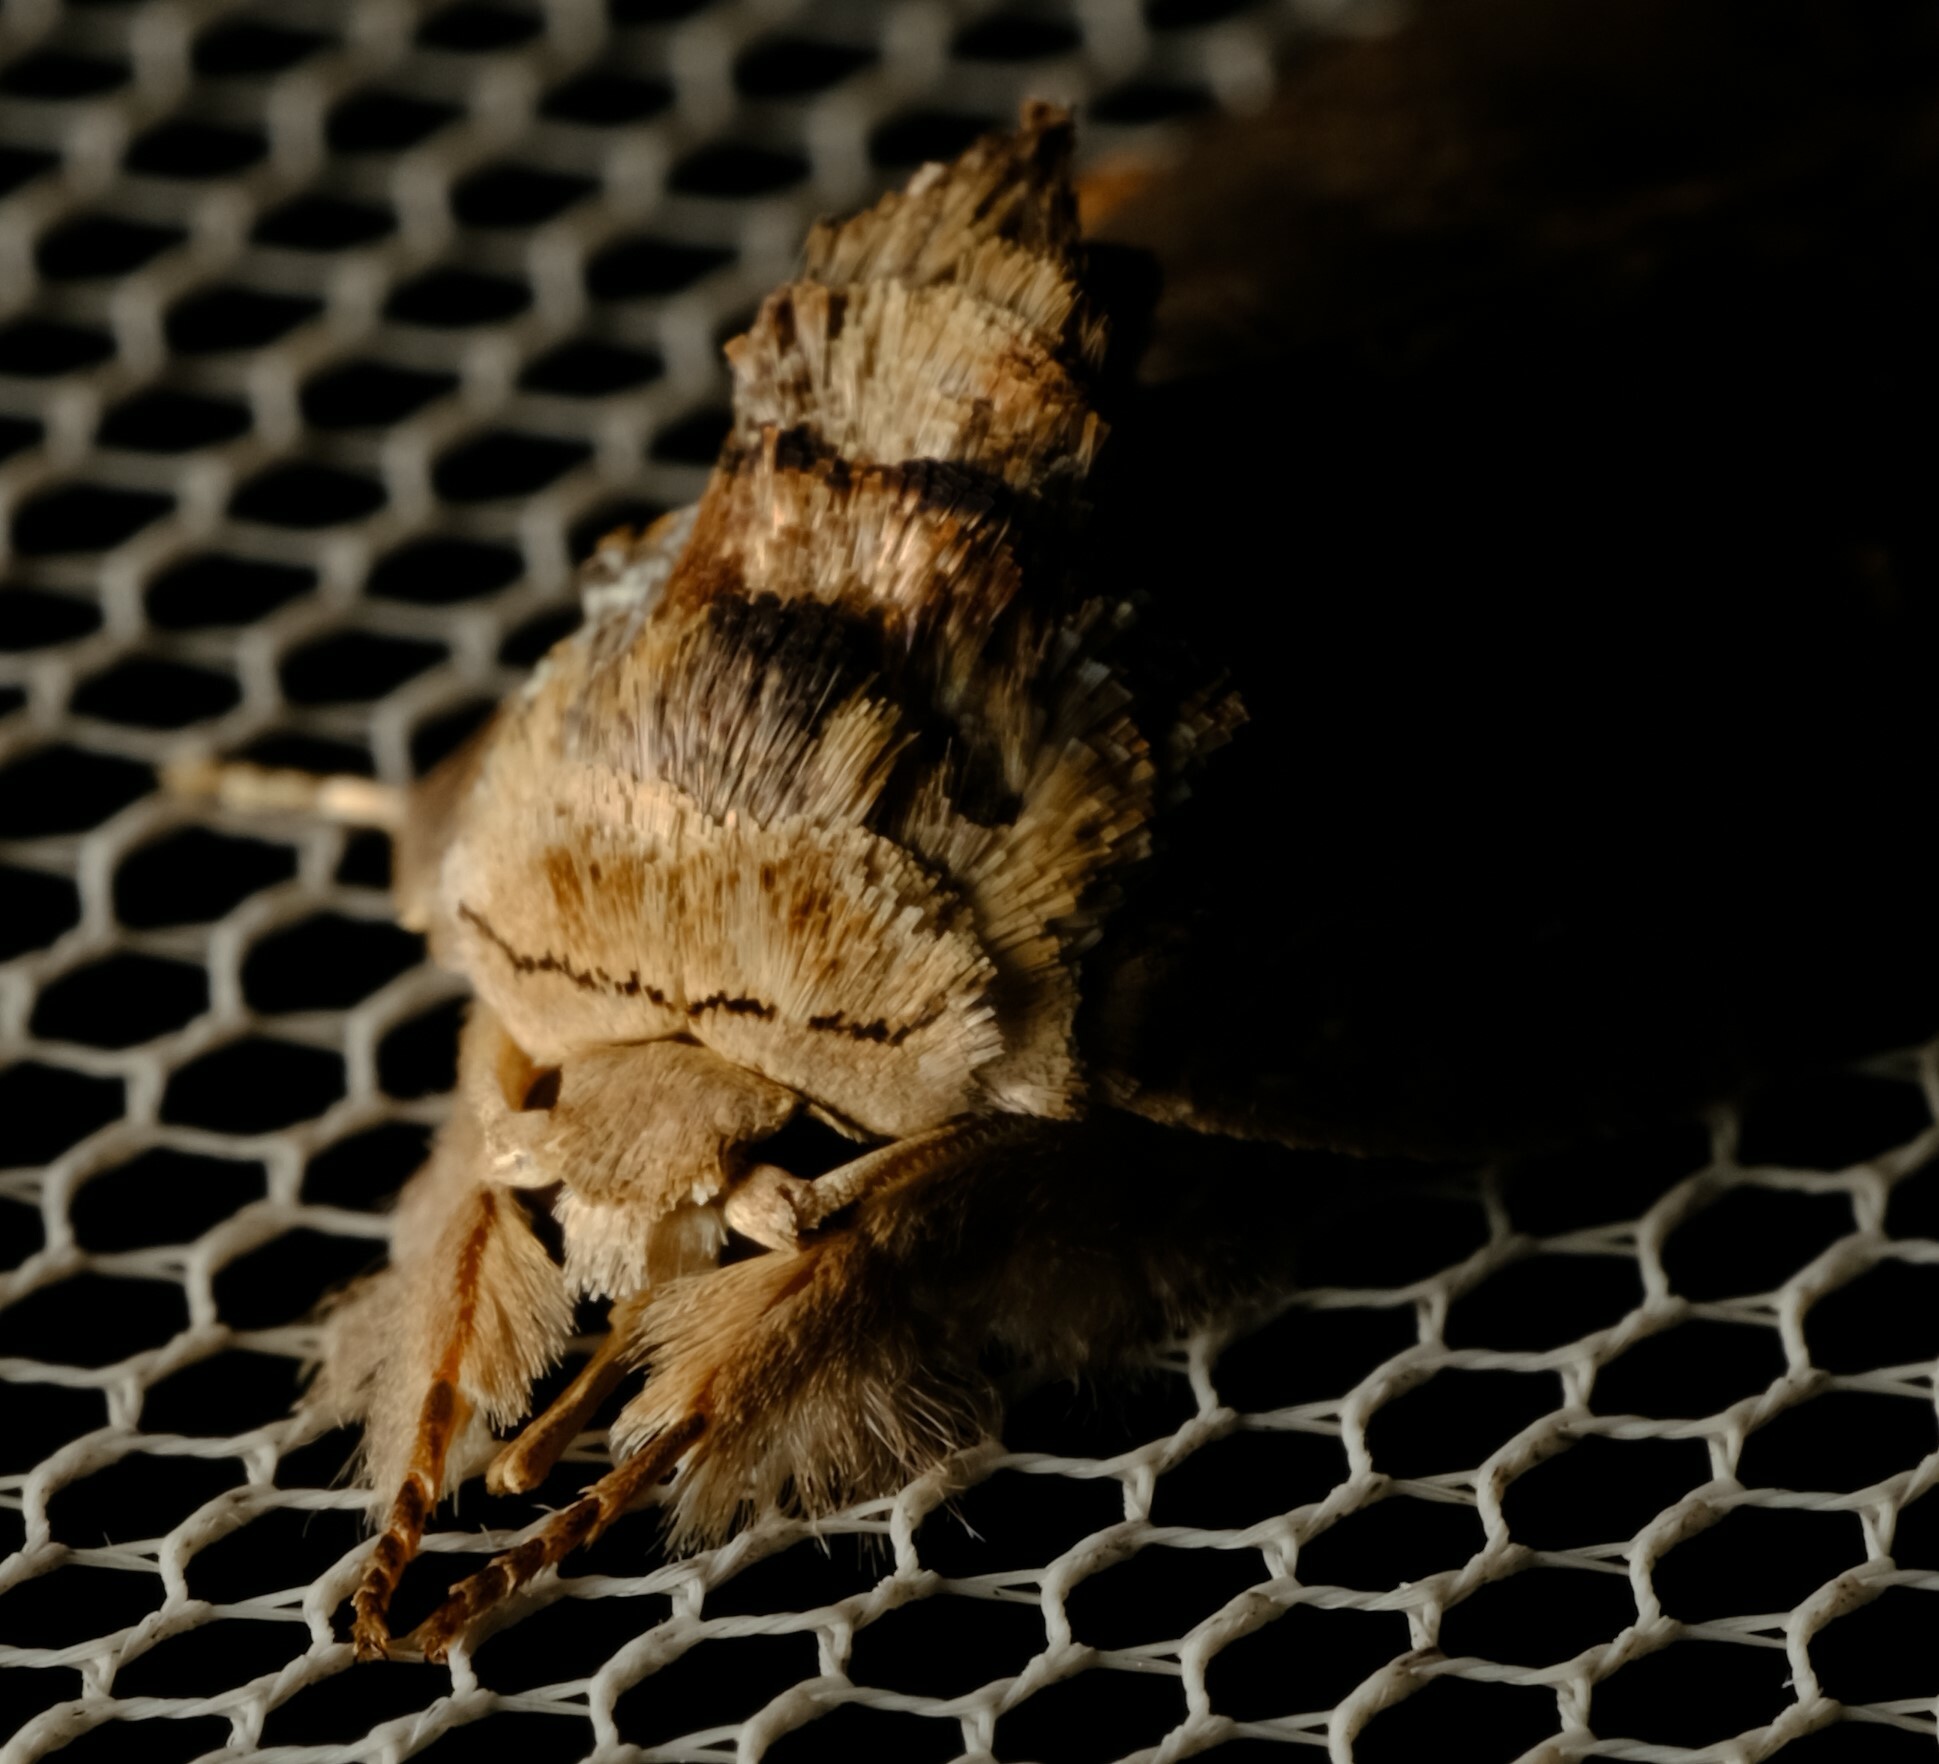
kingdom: Animalia
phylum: Arthropoda
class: Insecta
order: Lepidoptera
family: Noctuidae
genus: Ochthophora
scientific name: Ochthophora sericina
